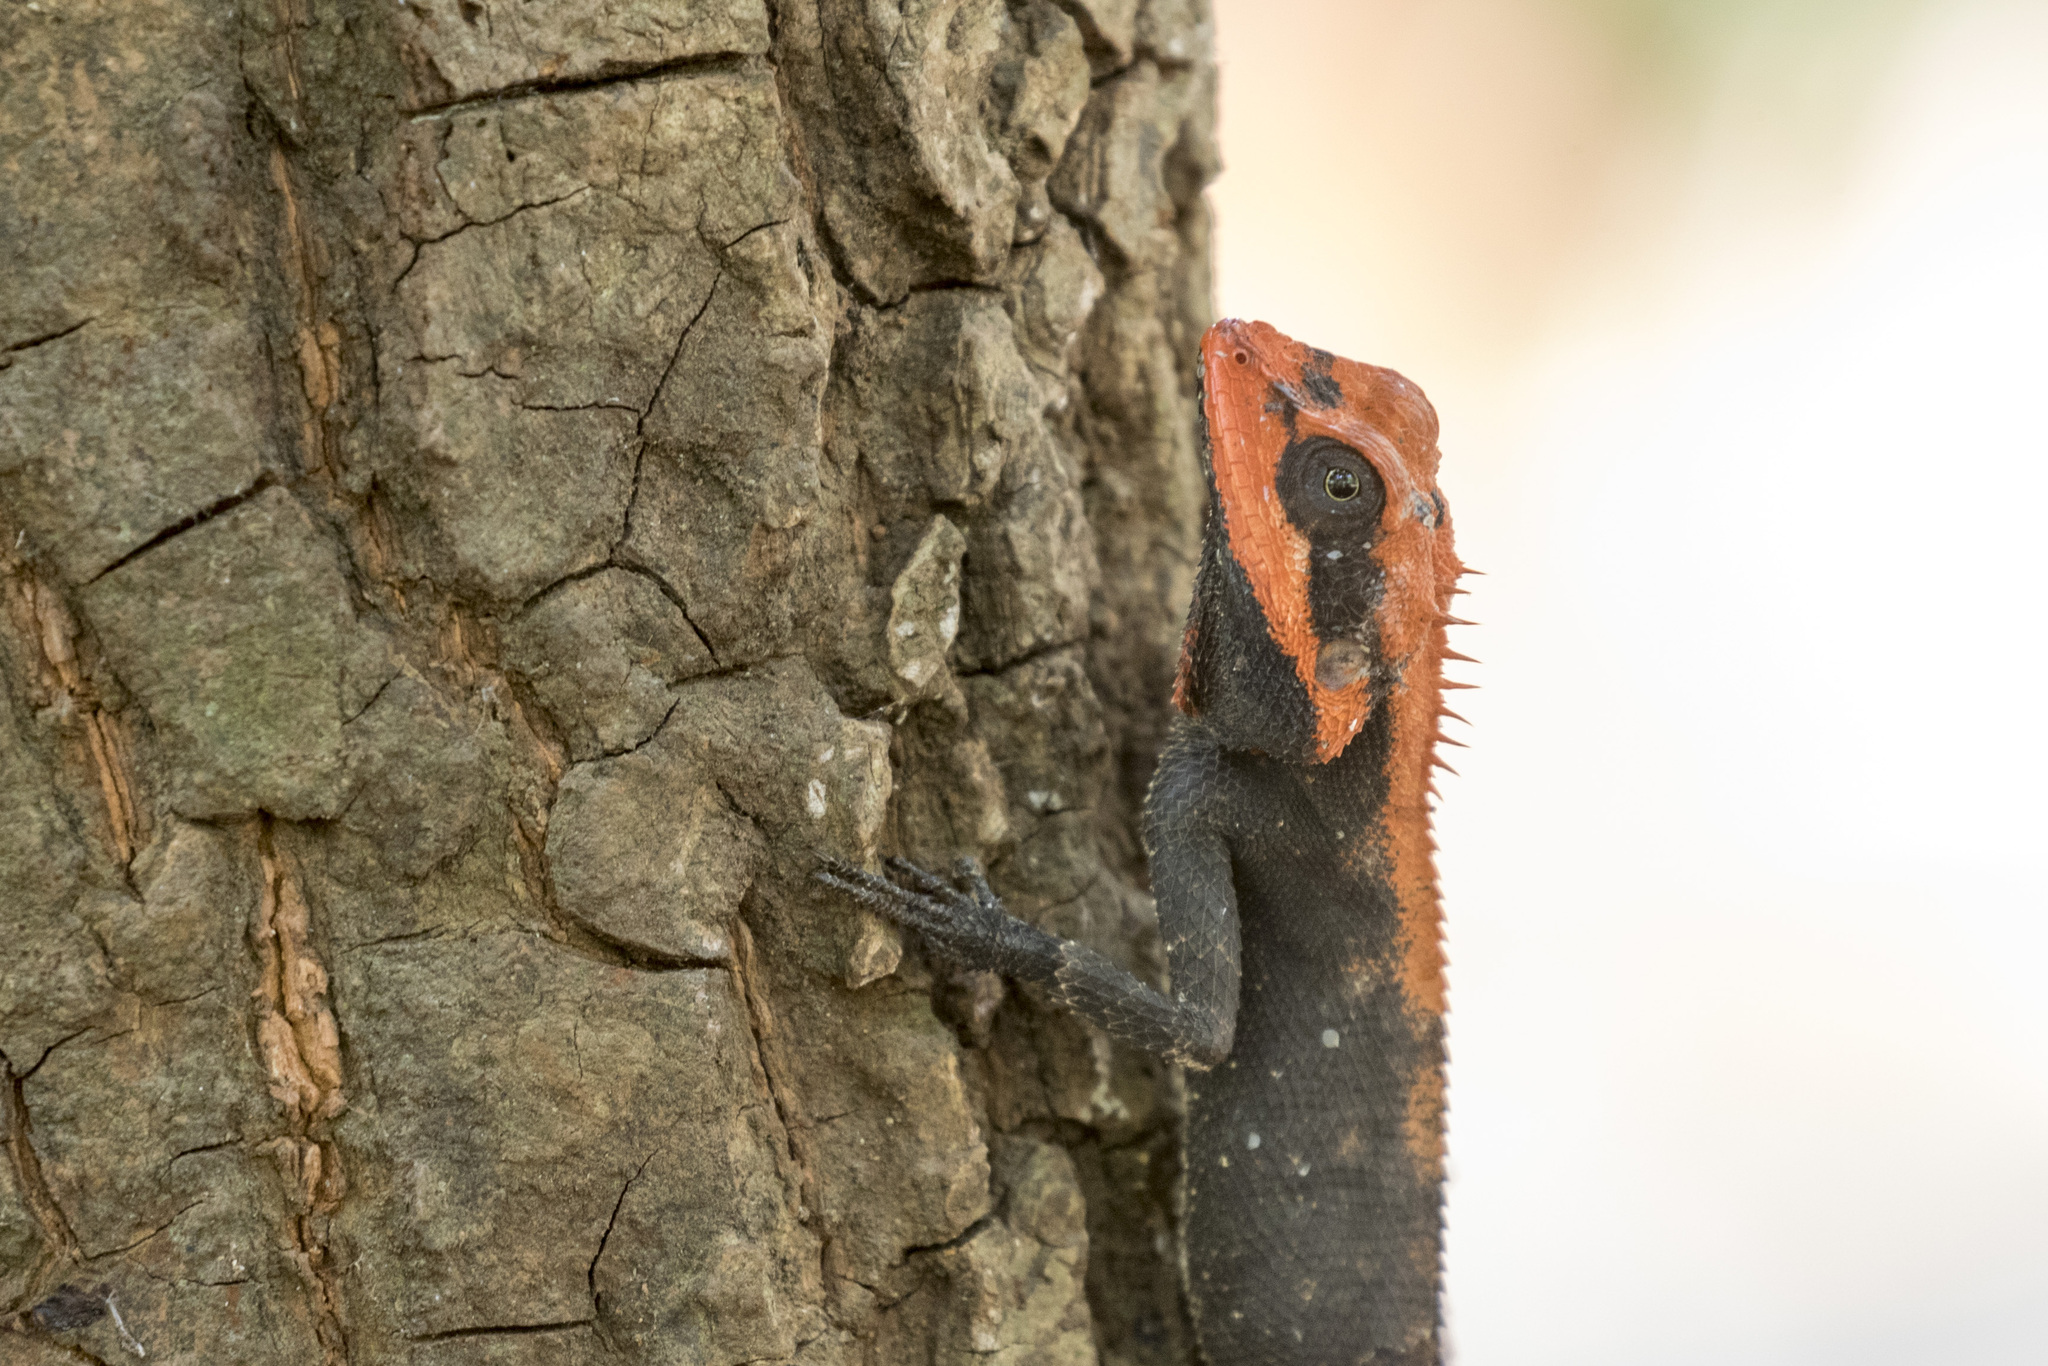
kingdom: Animalia
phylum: Chordata
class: Squamata
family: Agamidae
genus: Monilesaurus
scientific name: Monilesaurus rouxii
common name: Roux's forest lizard
